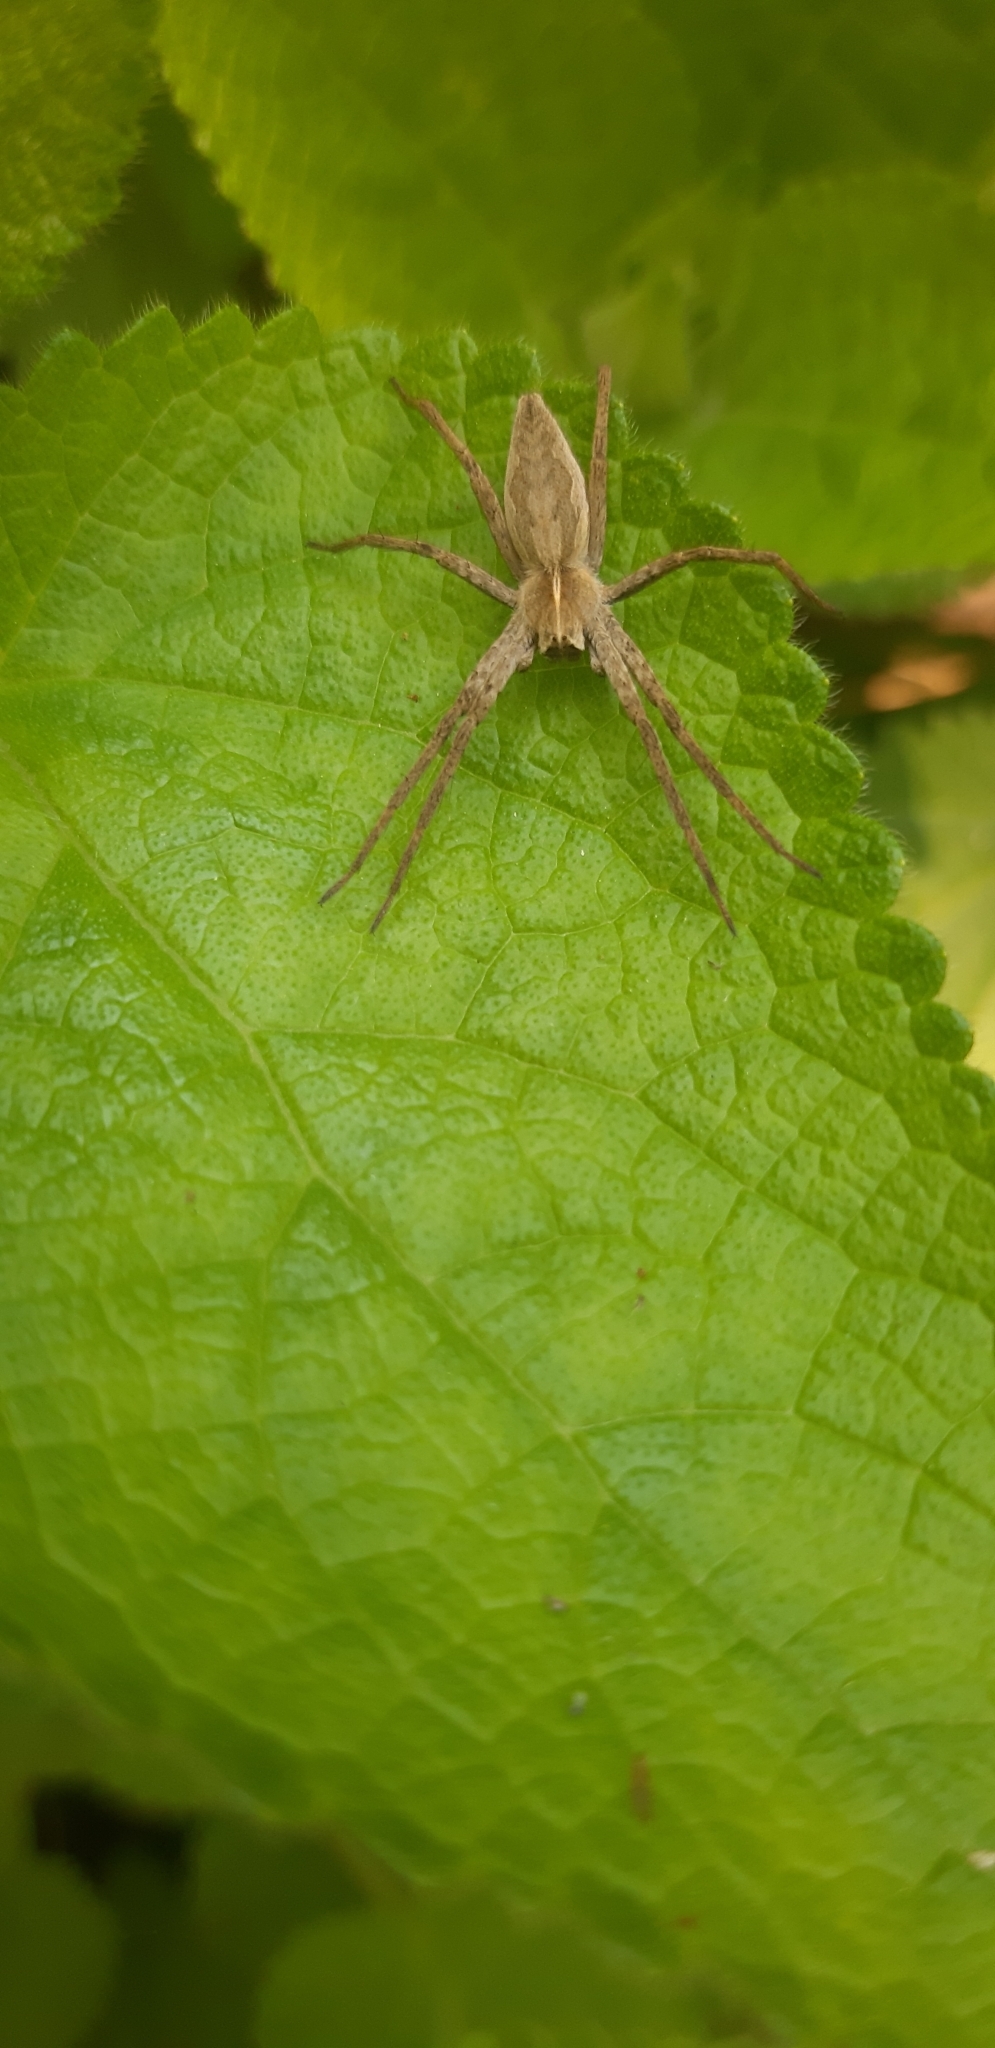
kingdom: Animalia
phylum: Arthropoda
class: Arachnida
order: Araneae
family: Pisauridae
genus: Pisaura
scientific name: Pisaura
